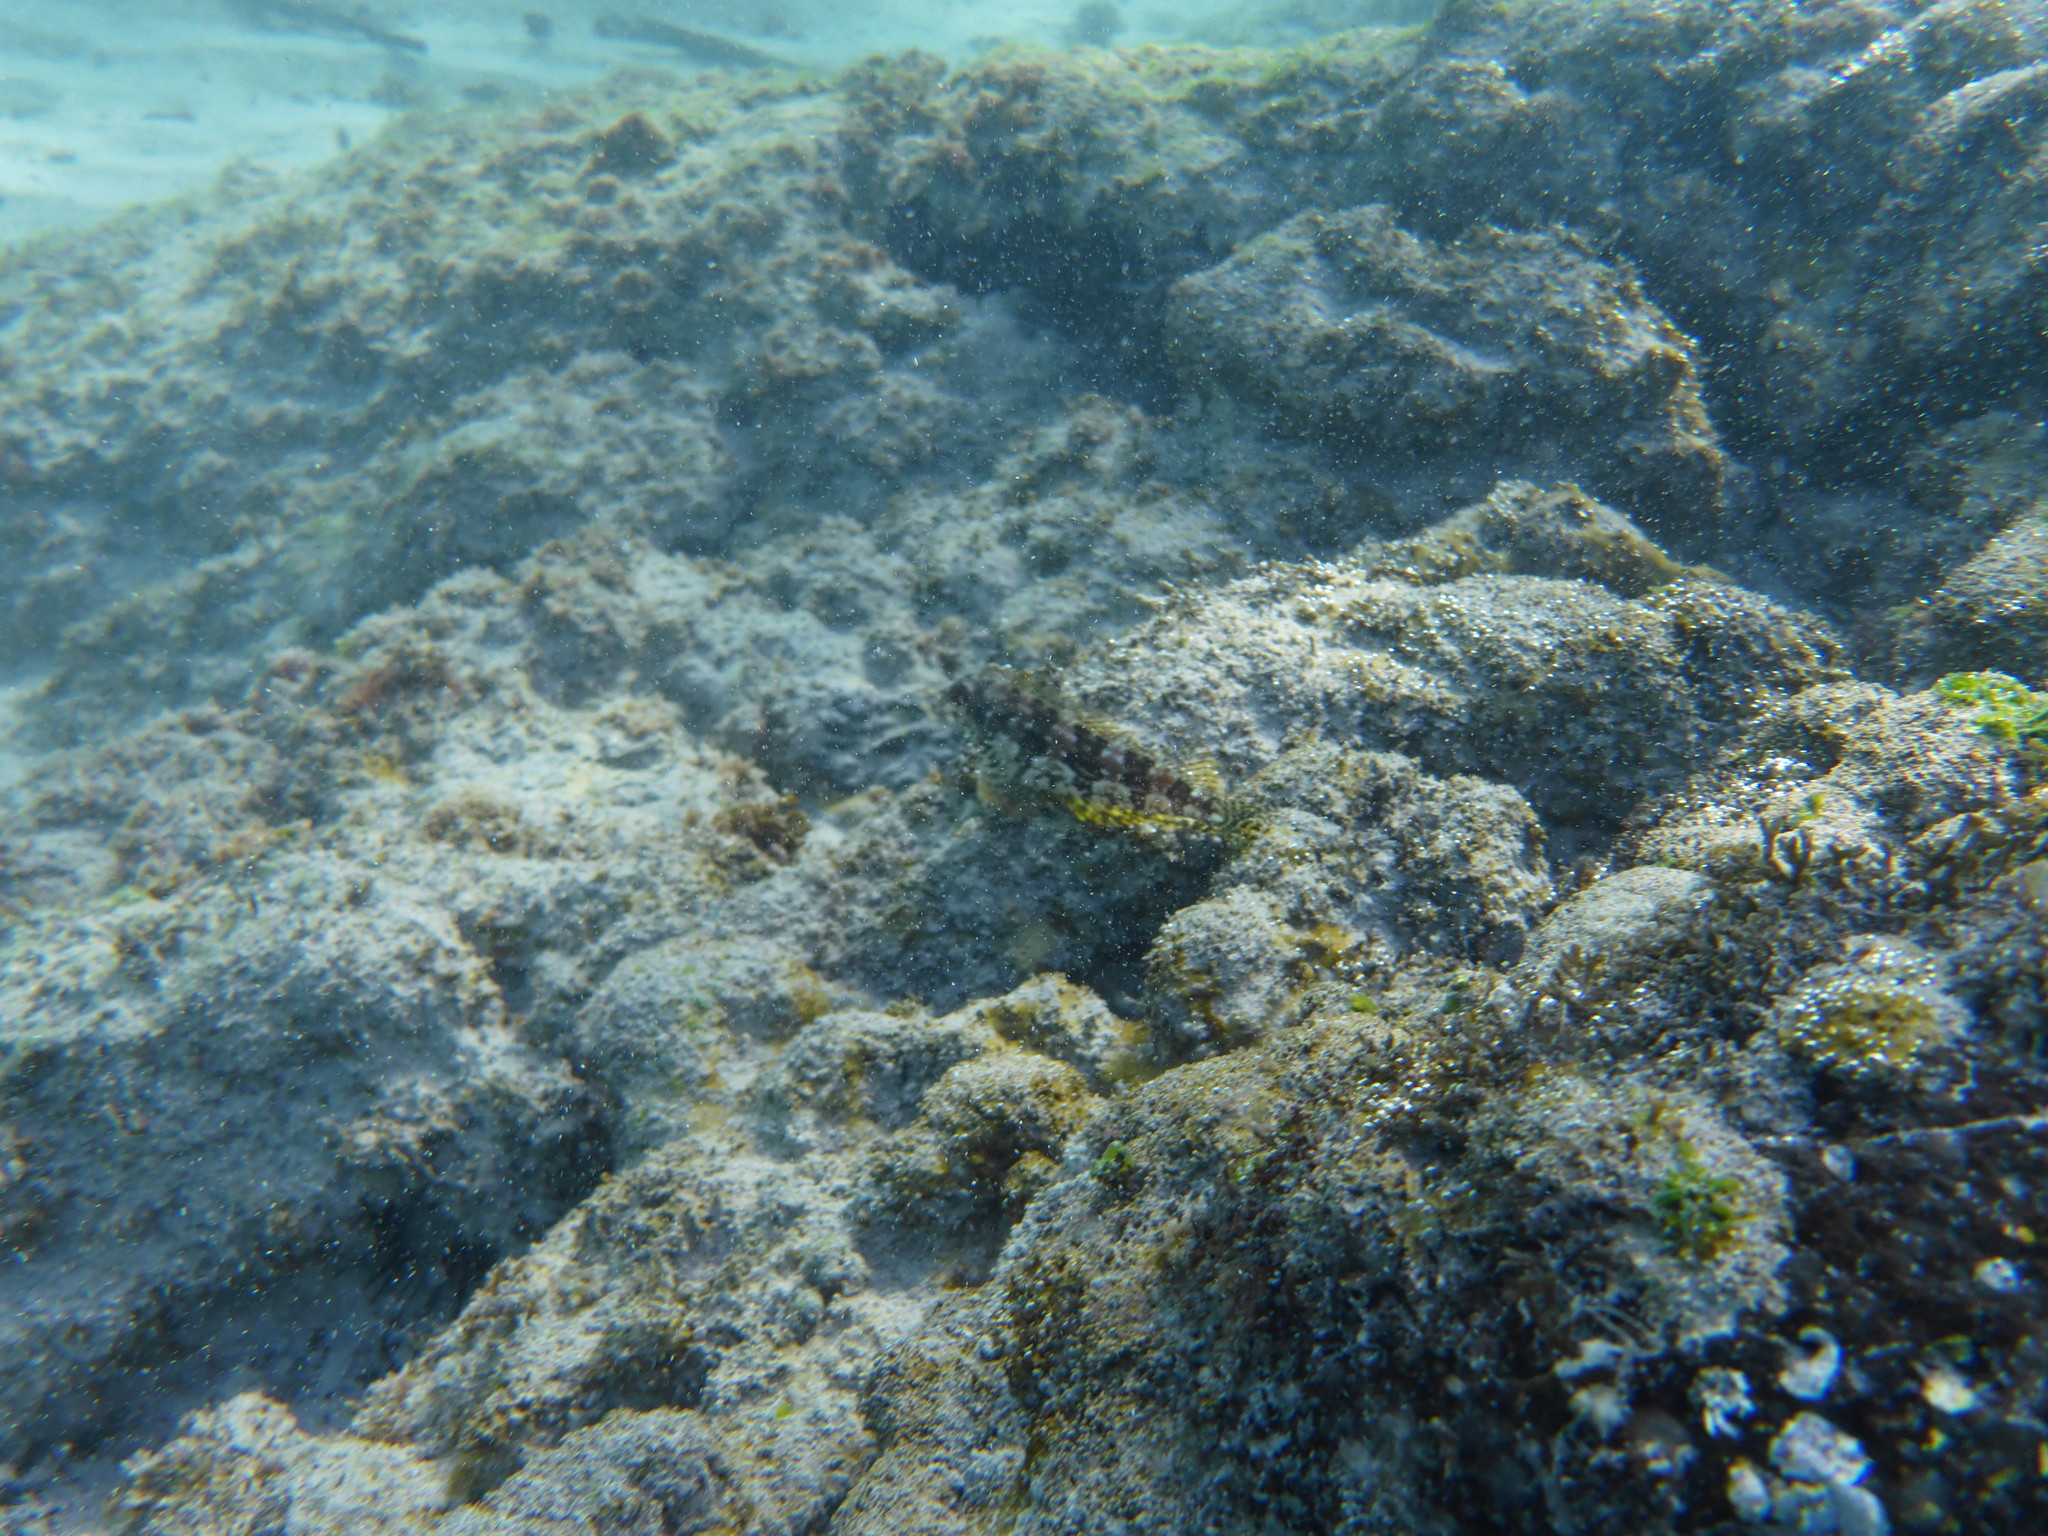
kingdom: Animalia
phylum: Chordata
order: Perciformes
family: Labrisomidae
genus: Malacoctenus
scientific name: Malacoctenus tetranemus
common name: Chameleon clinid
